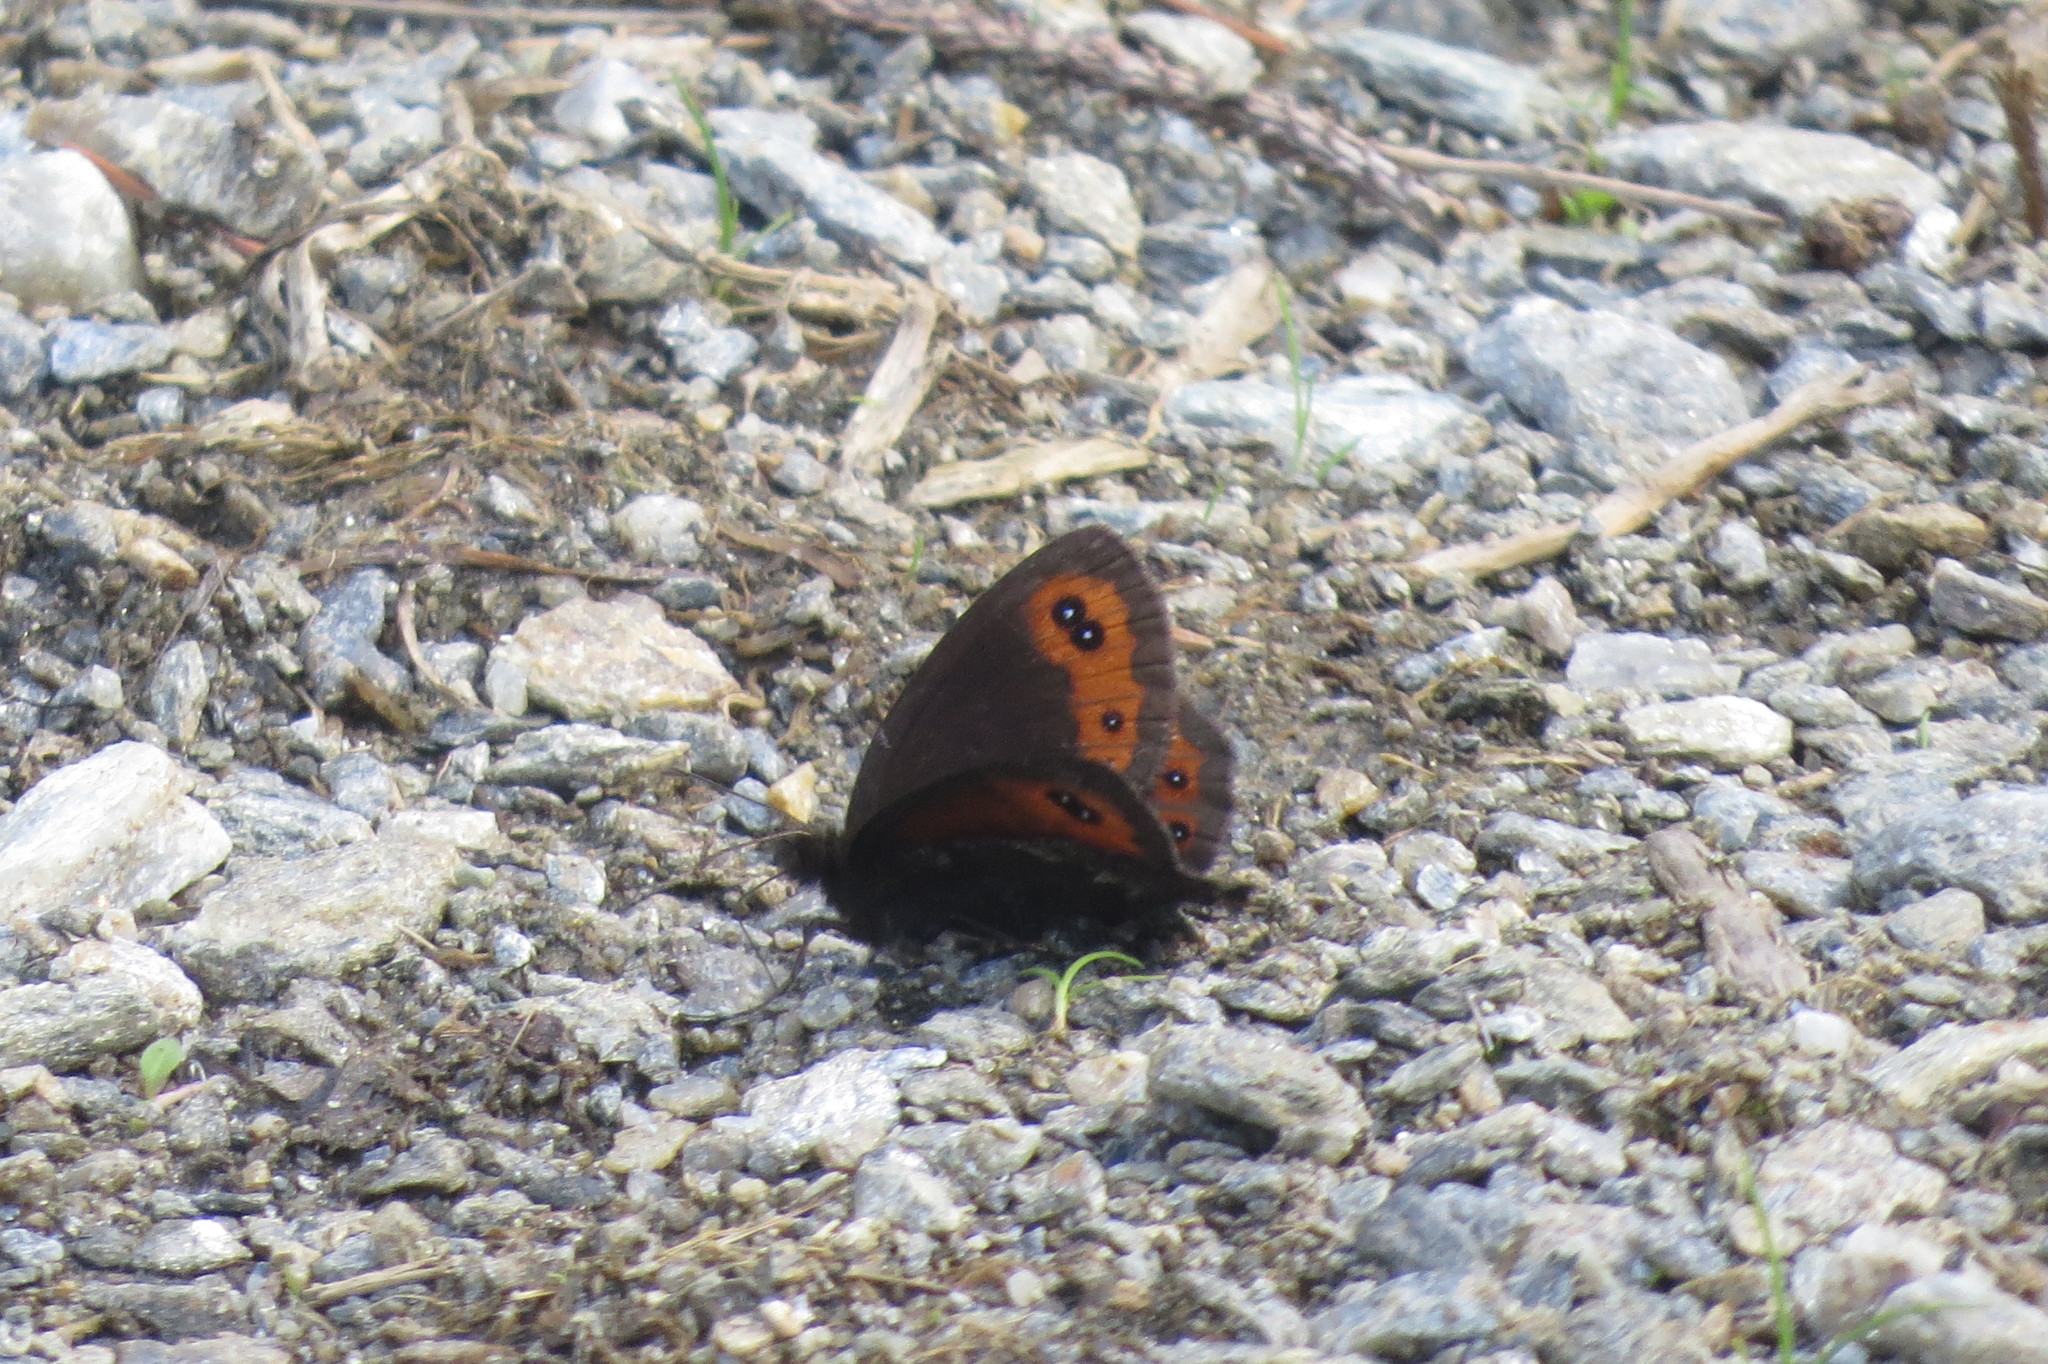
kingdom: Animalia
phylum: Arthropoda
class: Insecta
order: Lepidoptera
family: Nymphalidae
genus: Erebia
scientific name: Erebia montanus
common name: Marbled ringlet
